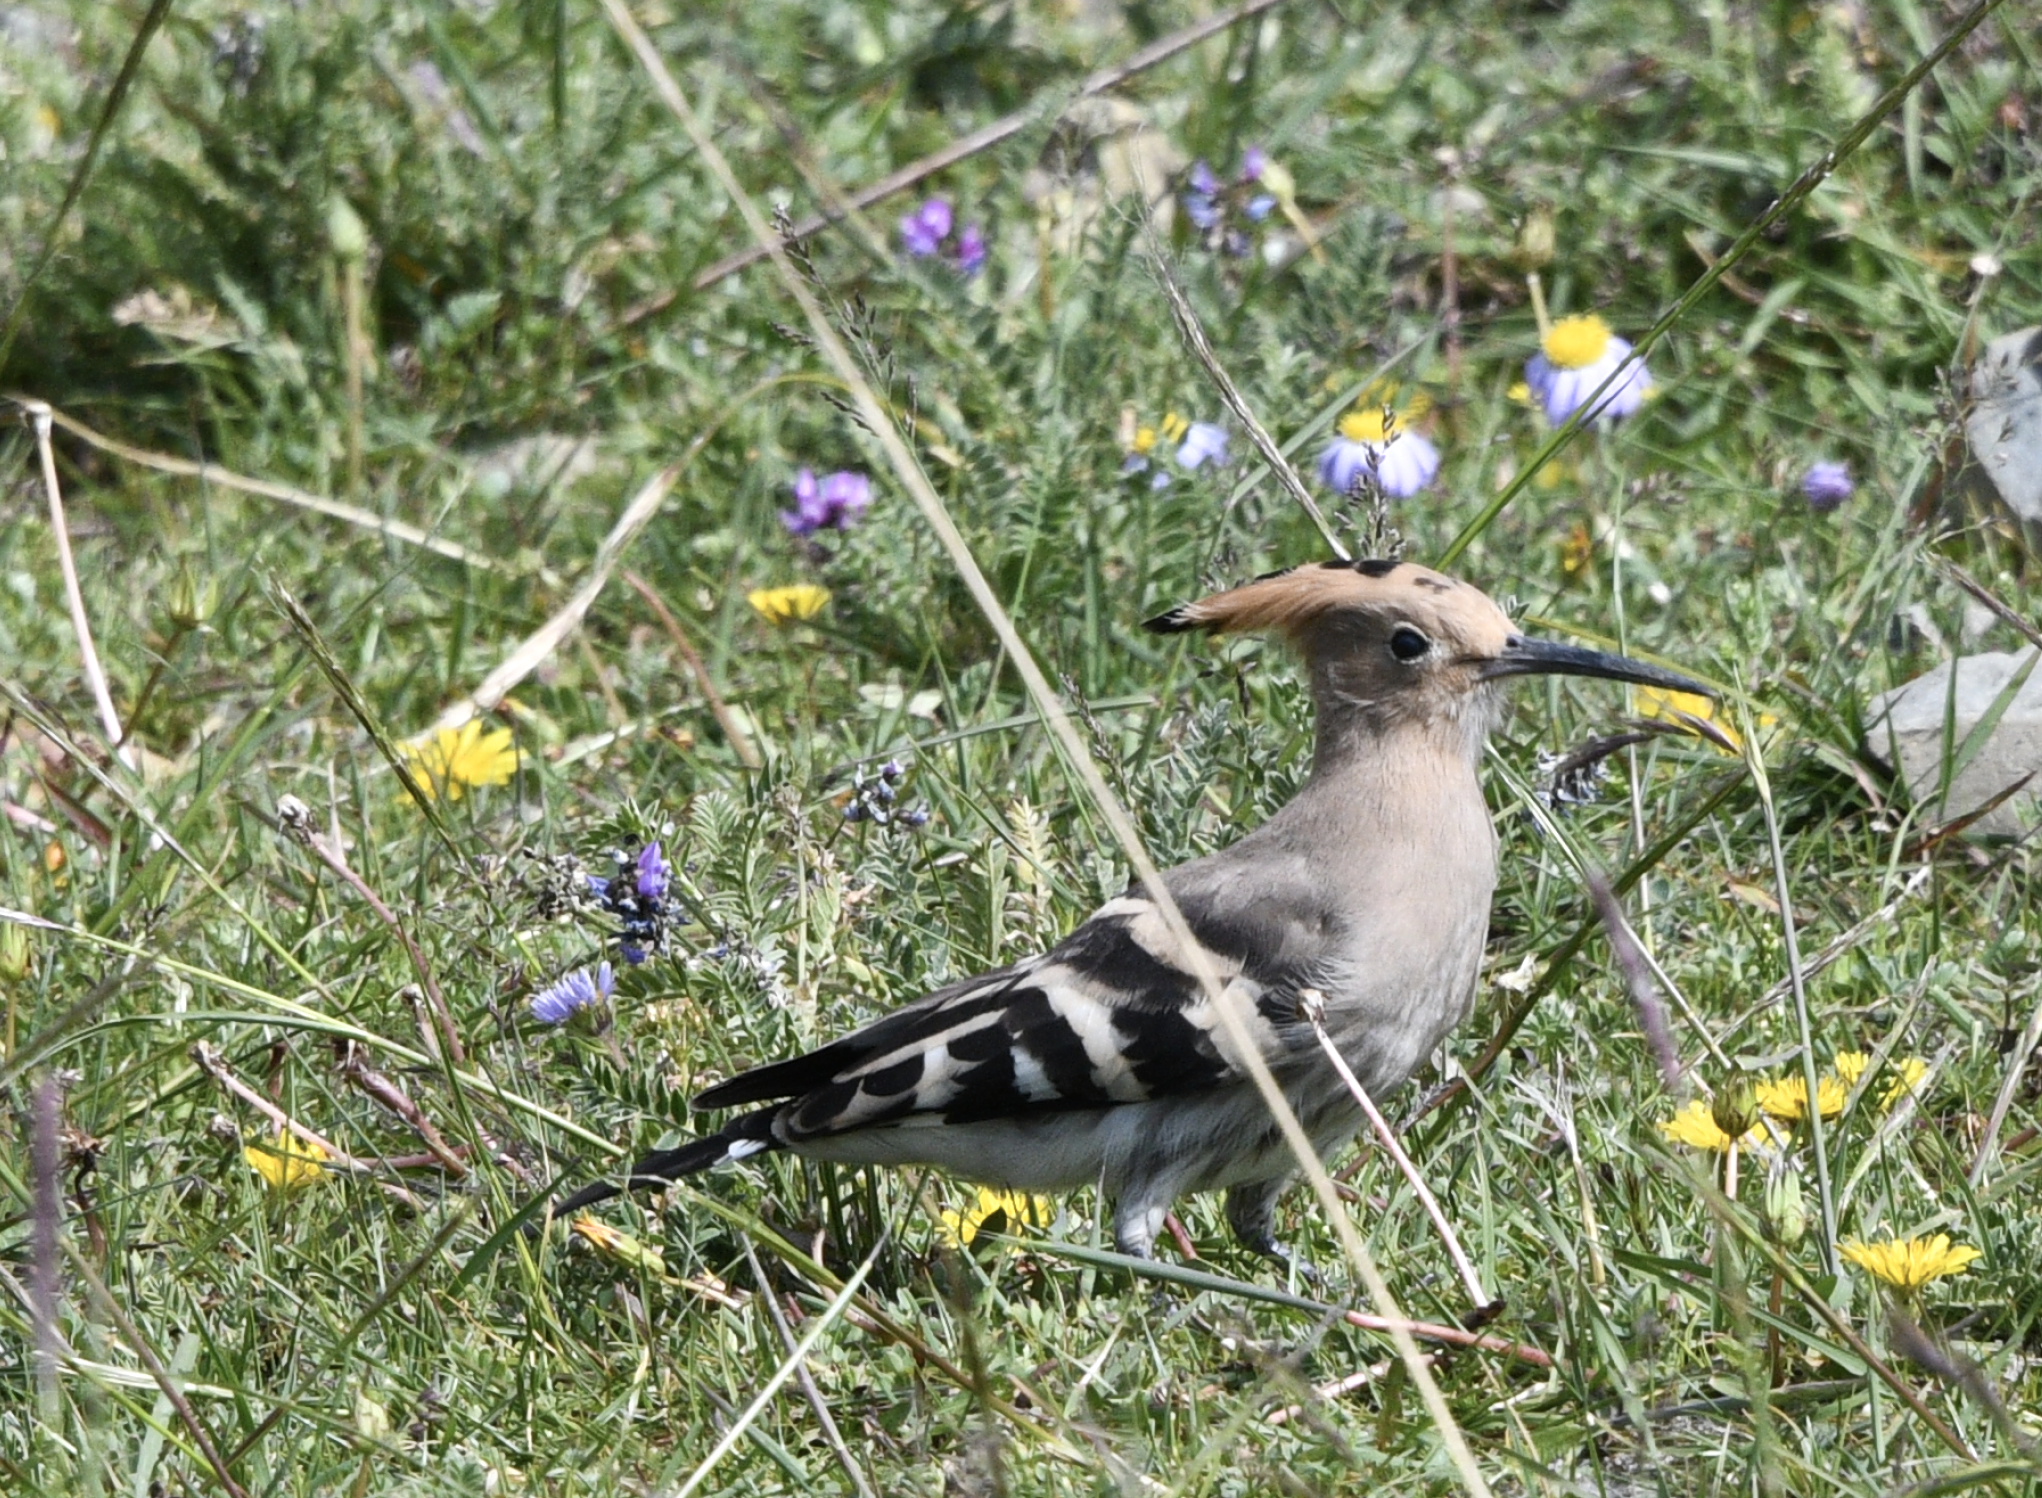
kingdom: Animalia
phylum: Chordata
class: Aves
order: Bucerotiformes
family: Upupidae
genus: Upupa
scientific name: Upupa epops
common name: Eurasian hoopoe
